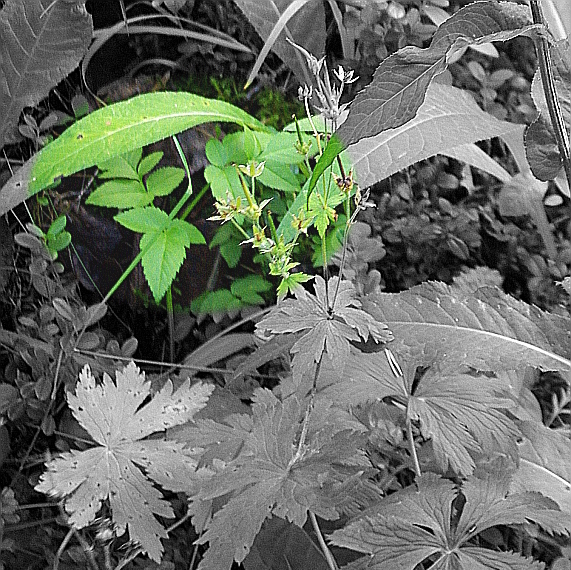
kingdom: Plantae
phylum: Tracheophyta
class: Magnoliopsida
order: Apiales
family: Apiaceae
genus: Angelica
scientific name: Angelica sylvestris
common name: Wild angelica
